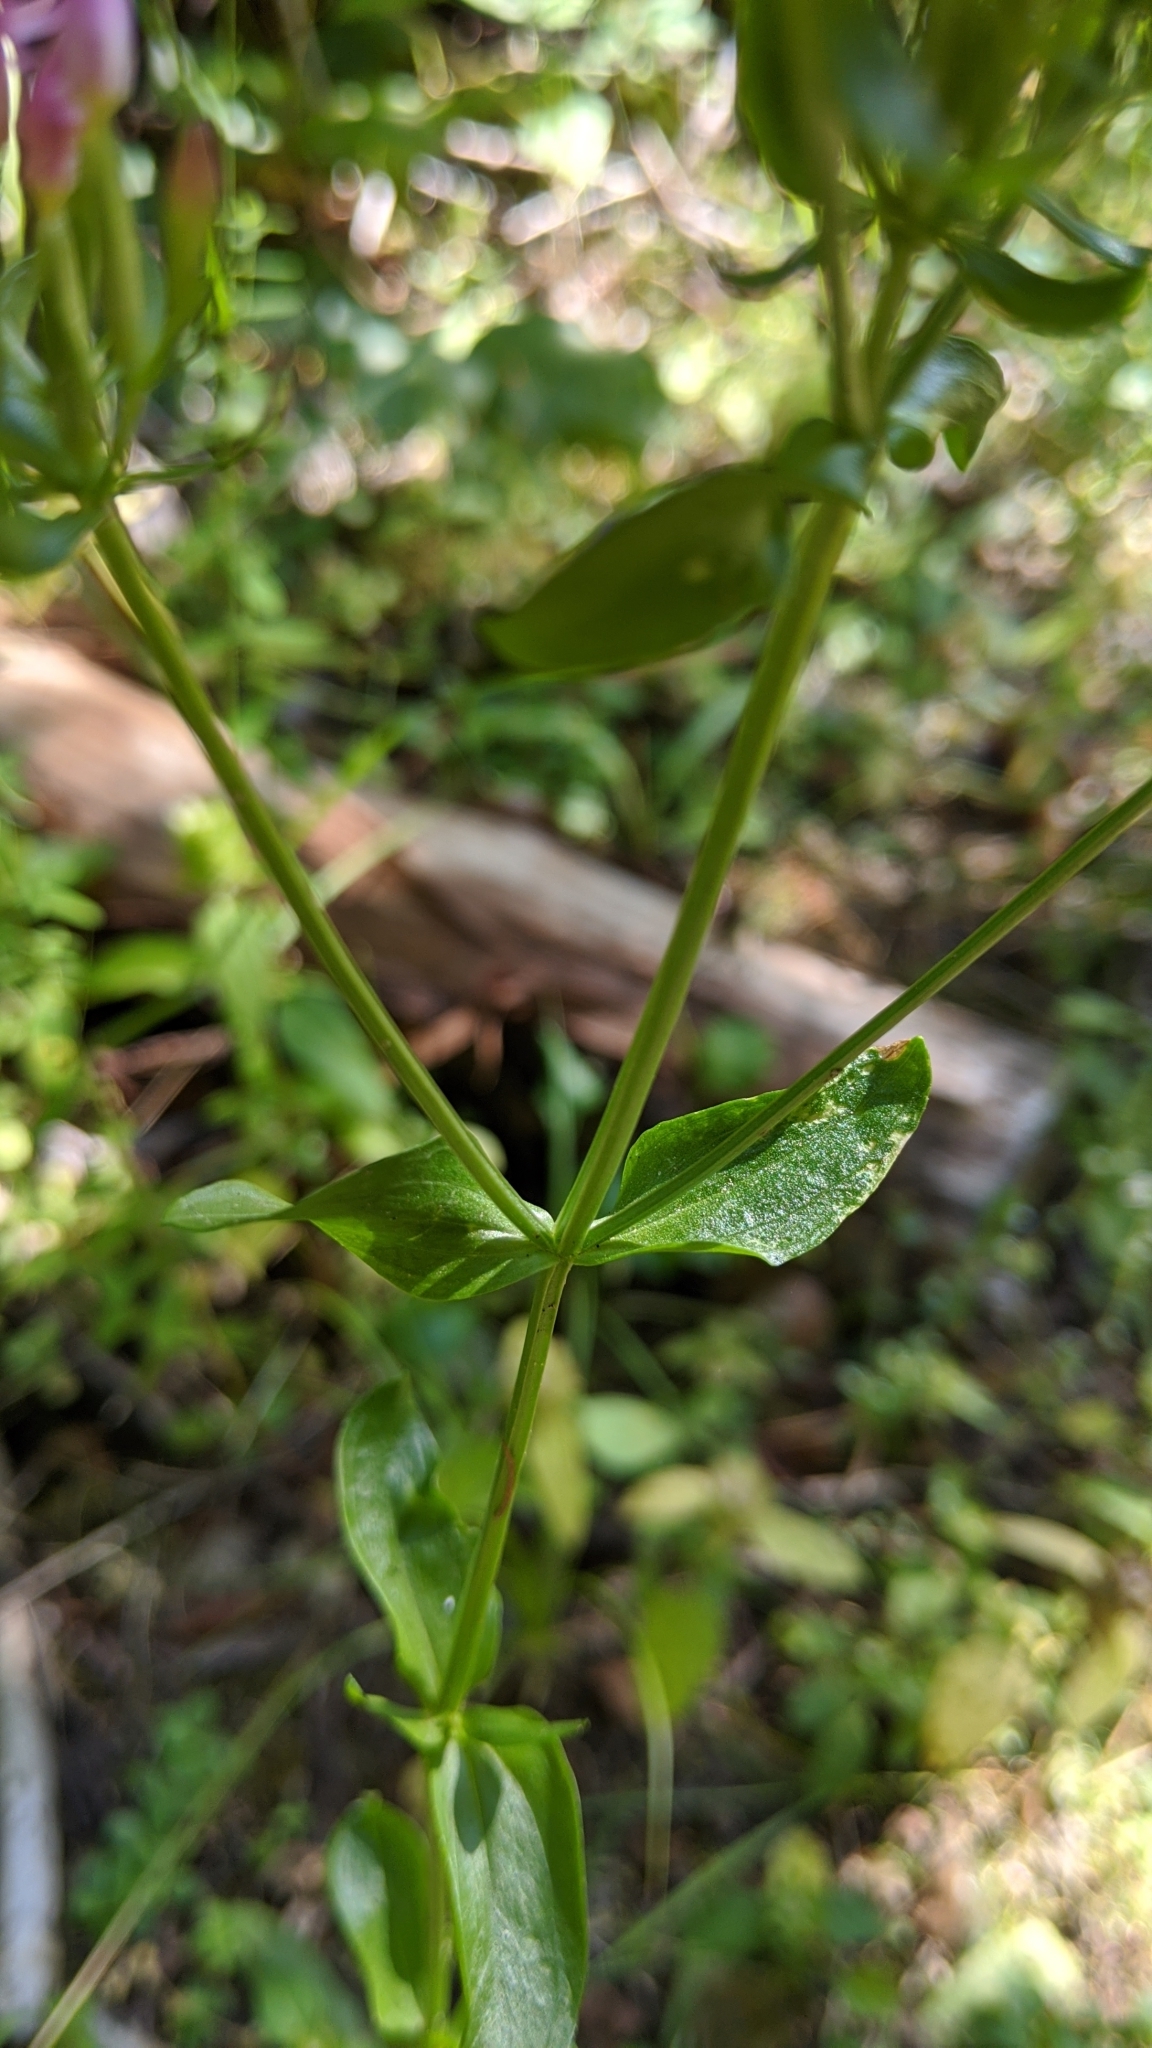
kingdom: Plantae
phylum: Tracheophyta
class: Magnoliopsida
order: Gentianales
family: Gentianaceae
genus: Centaurium
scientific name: Centaurium erythraea
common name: Common centaury
